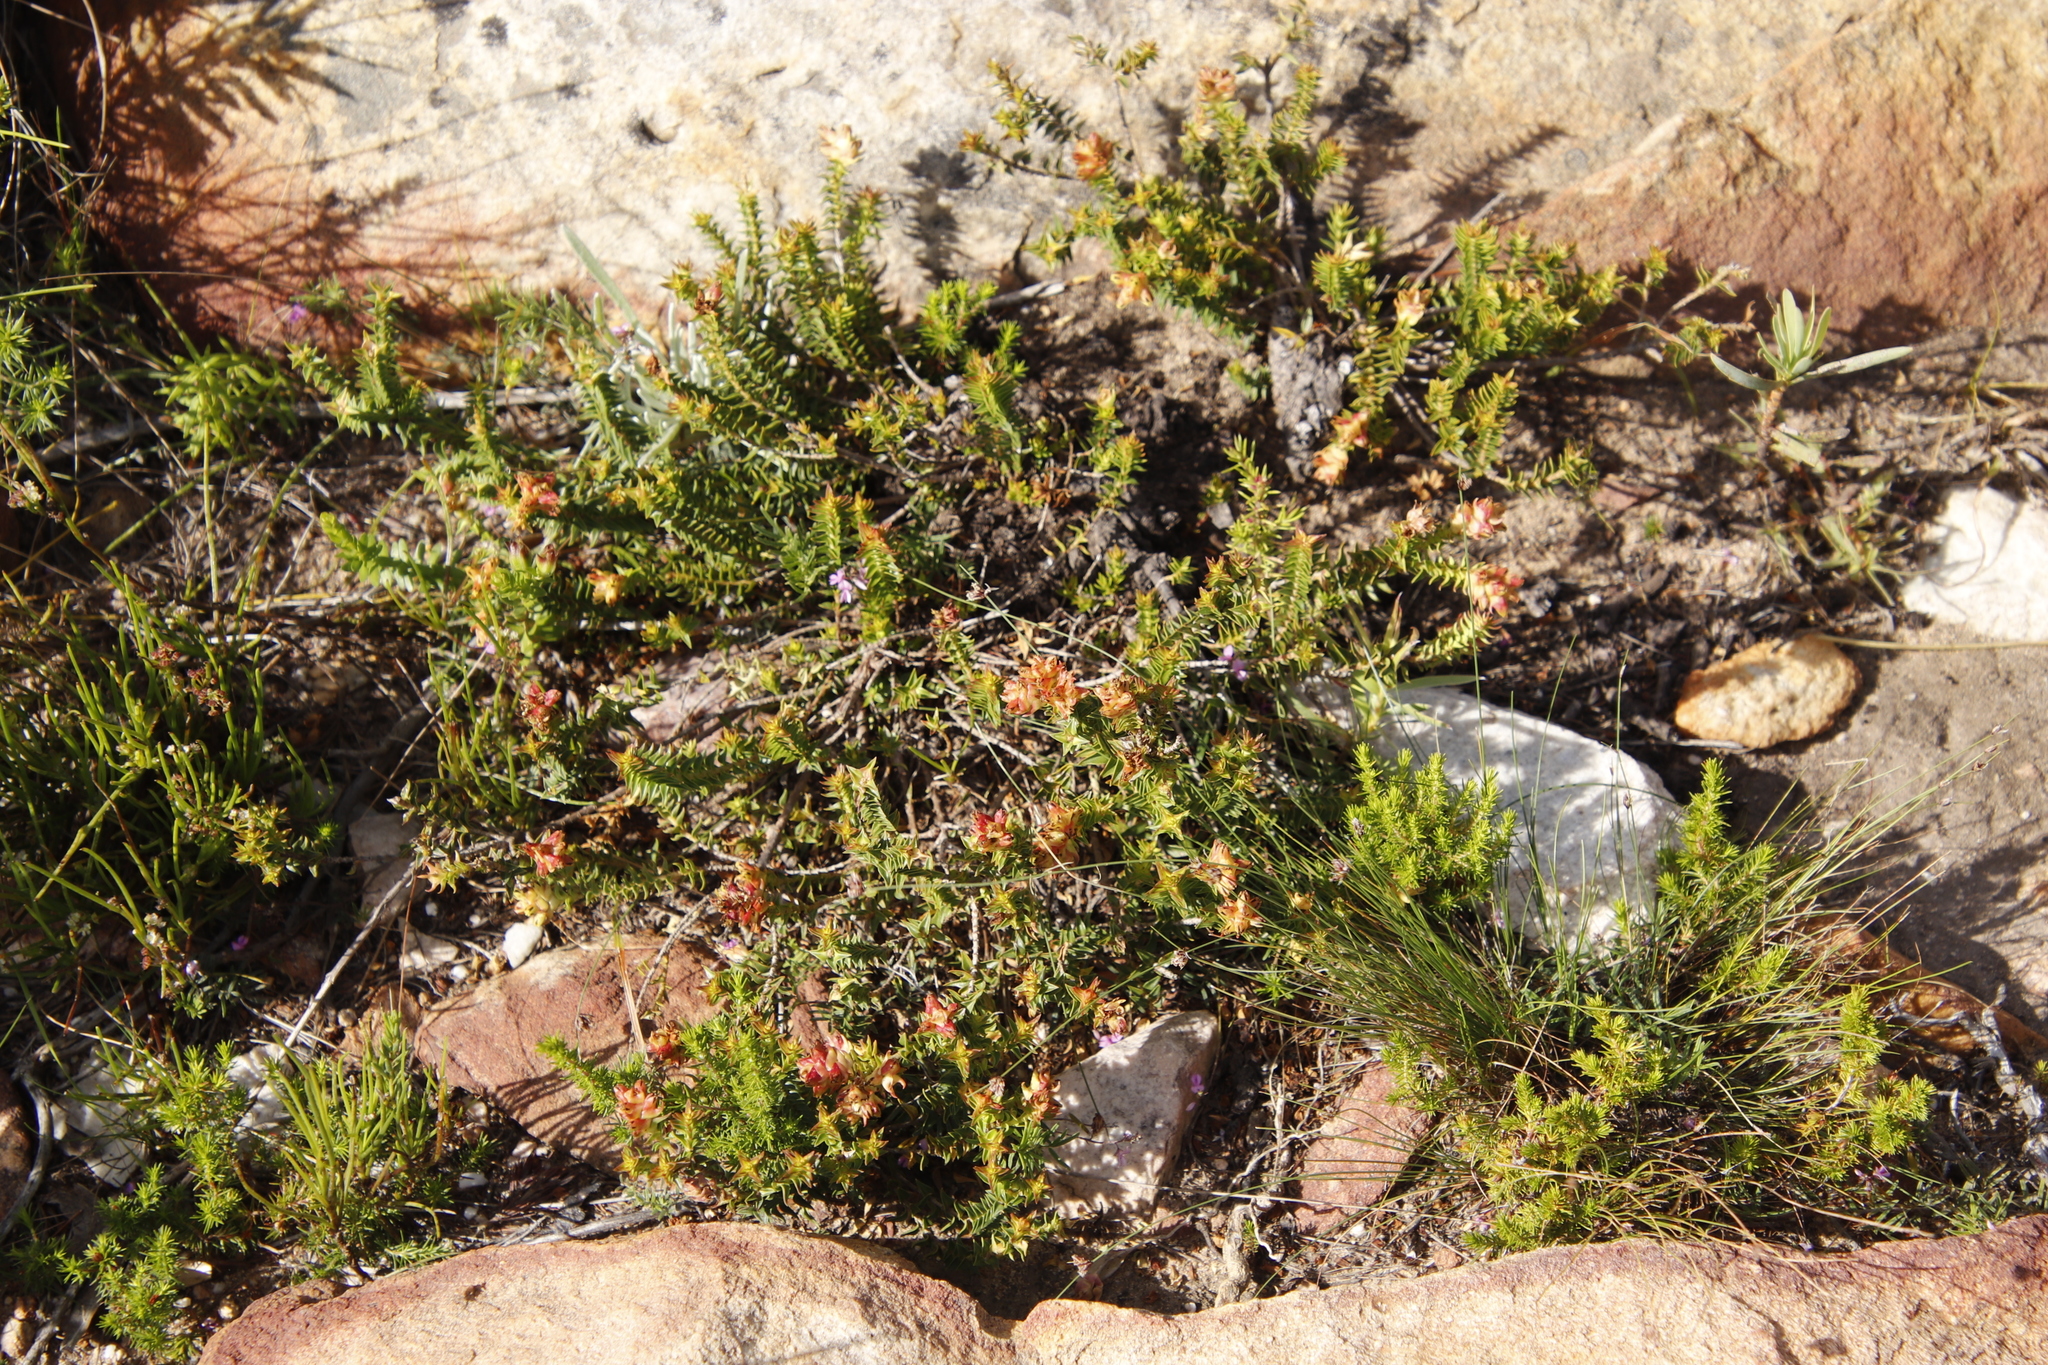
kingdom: Plantae
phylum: Tracheophyta
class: Magnoliopsida
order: Myrtales
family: Penaeaceae
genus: Penaea
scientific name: Penaea mucronata
